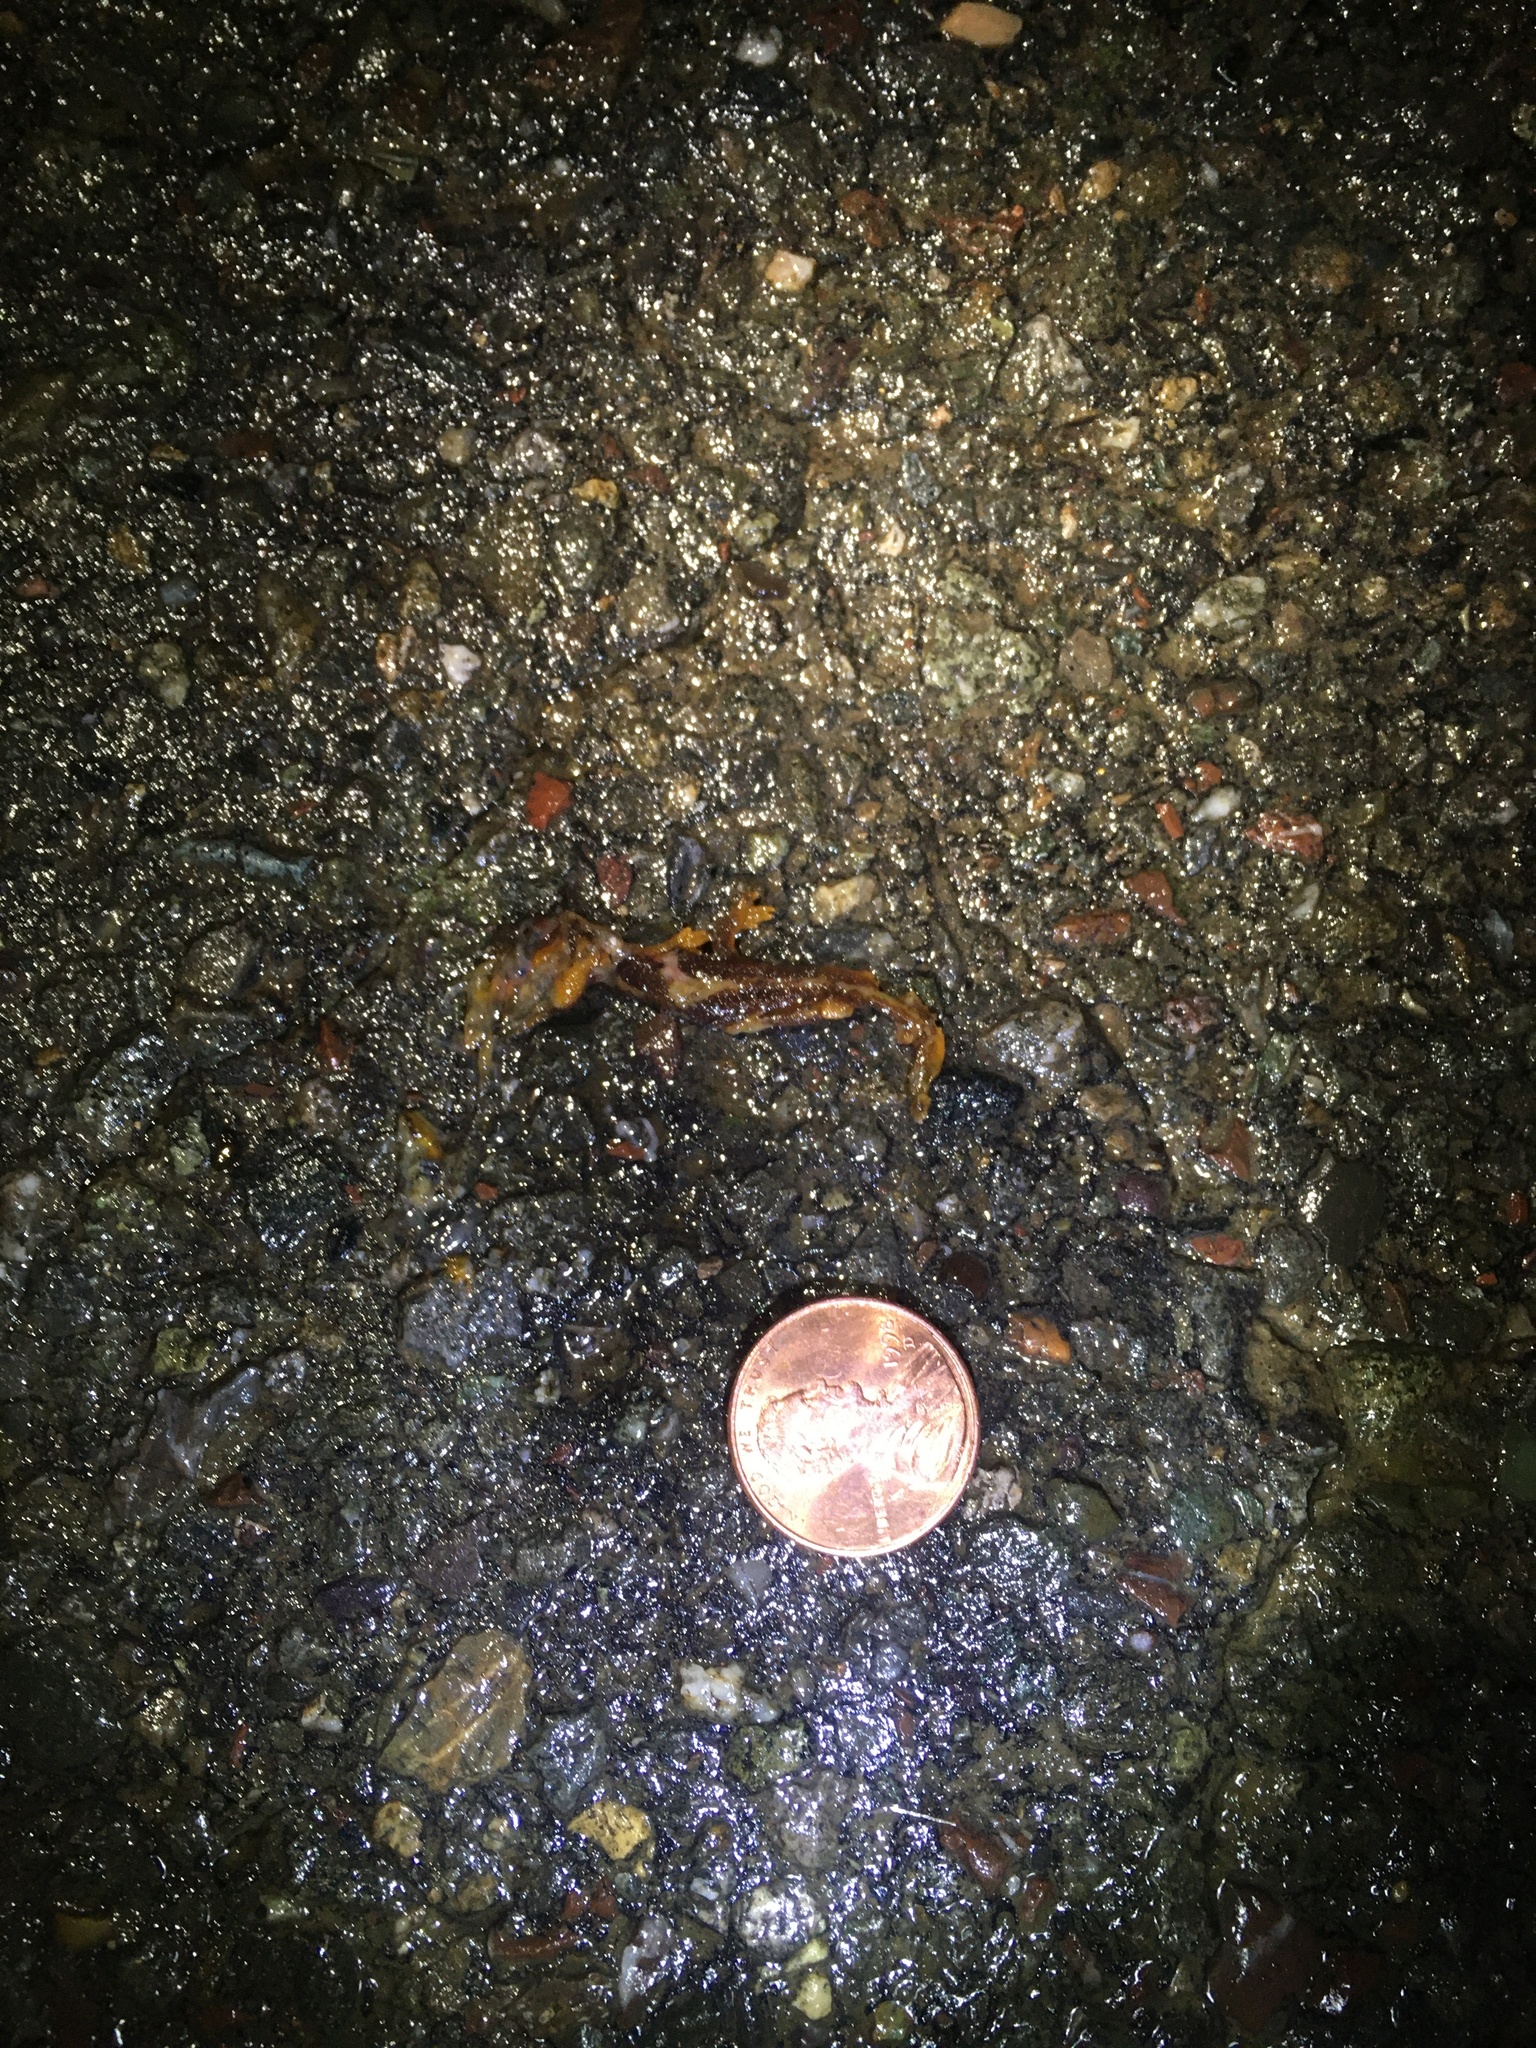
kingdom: Animalia
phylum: Chordata
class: Amphibia
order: Caudata
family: Salamandridae
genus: Taricha
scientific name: Taricha
